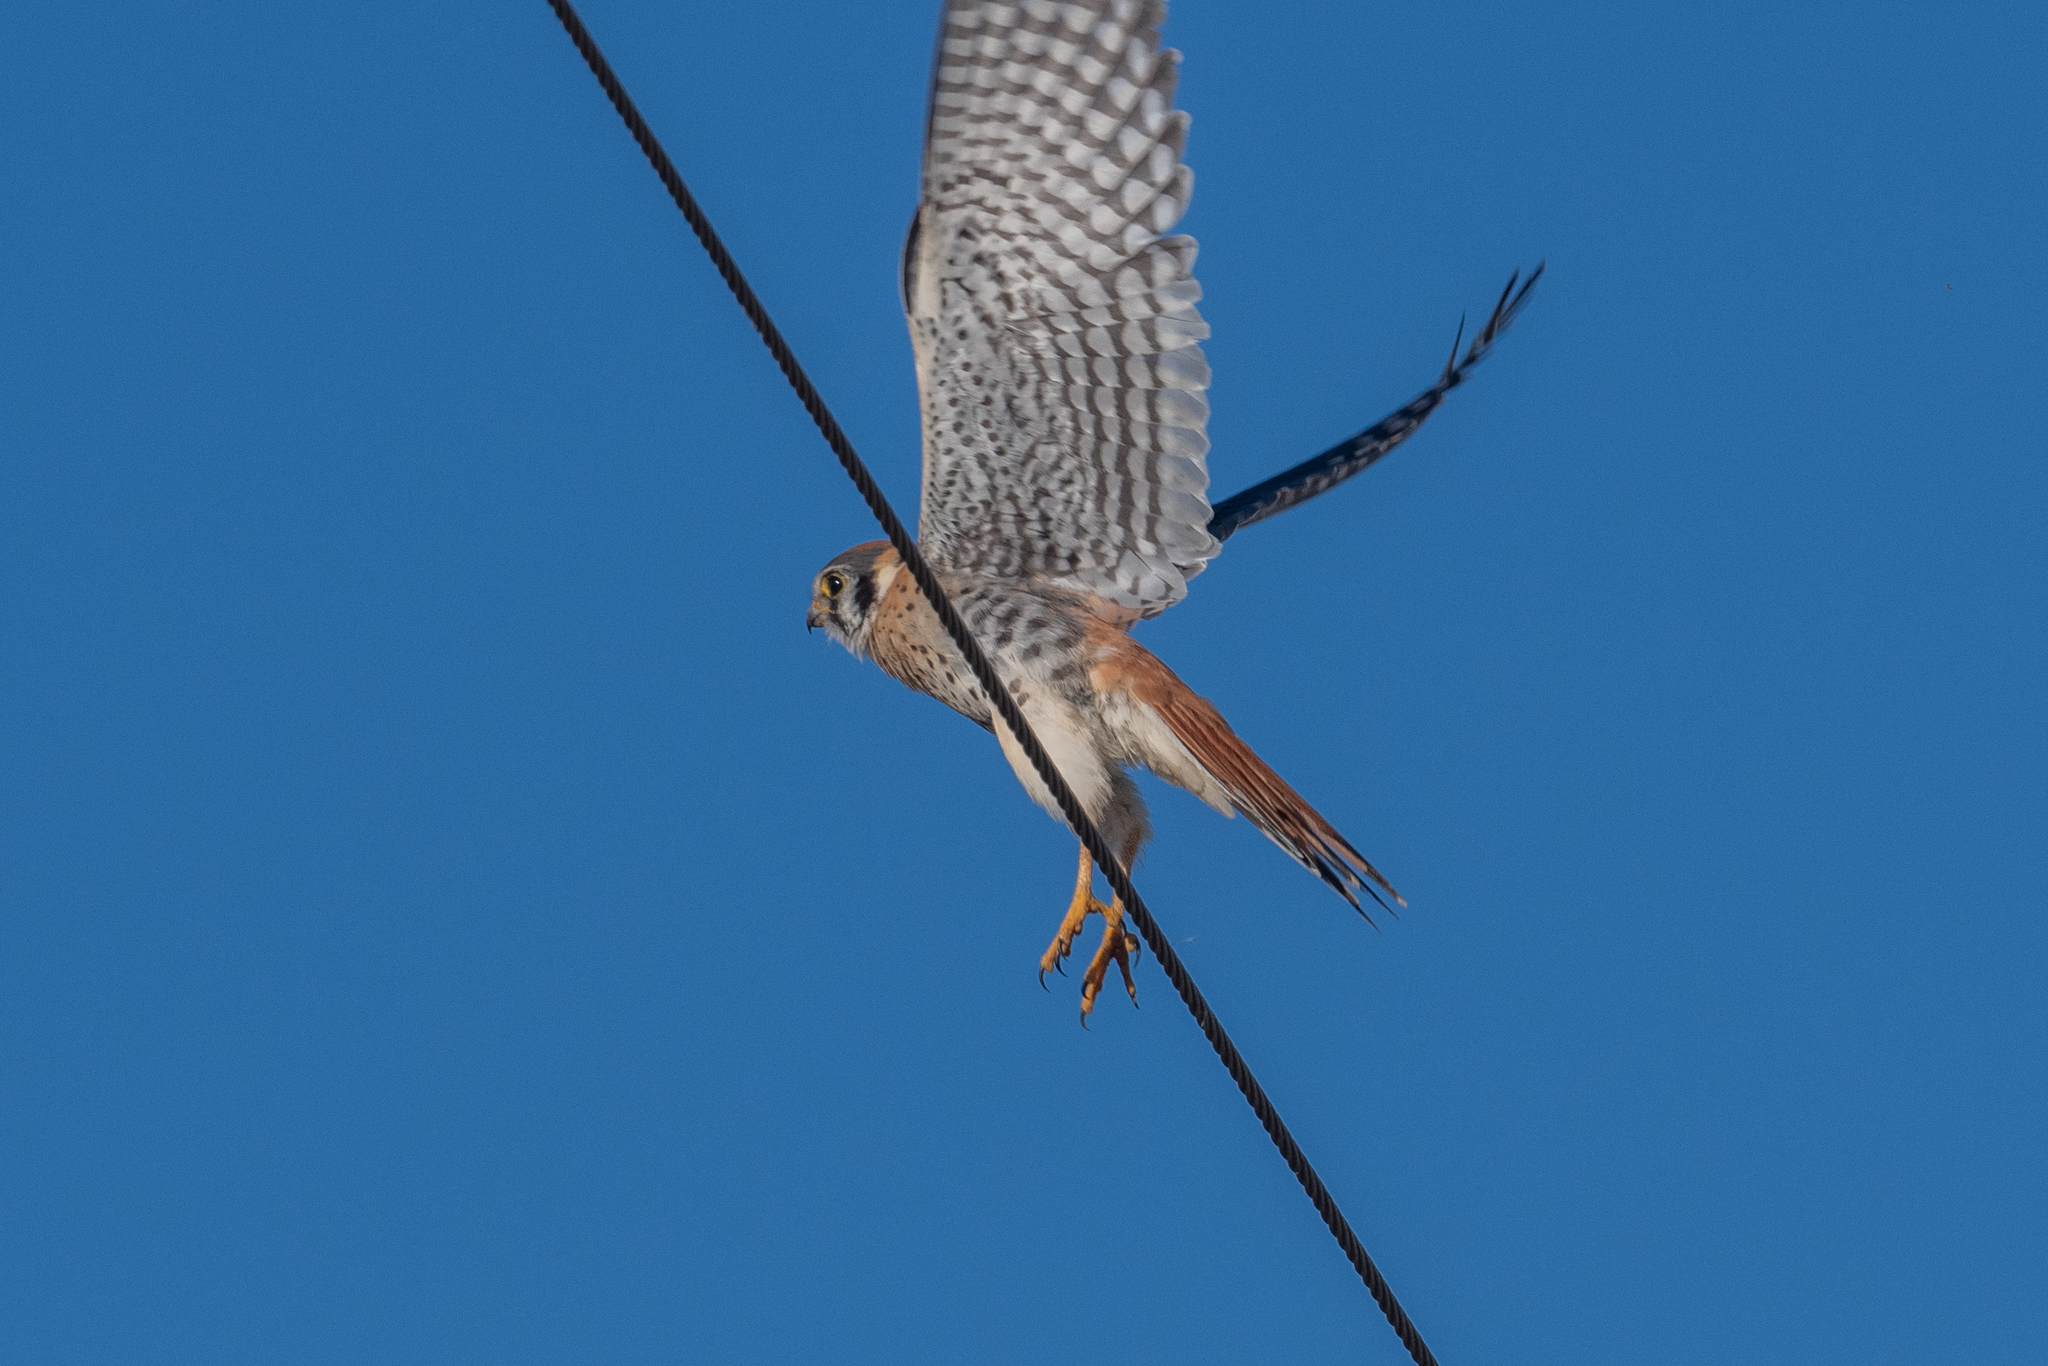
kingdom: Animalia
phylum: Chordata
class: Aves
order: Falconiformes
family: Falconidae
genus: Falco
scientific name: Falco sparverius
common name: American kestrel
